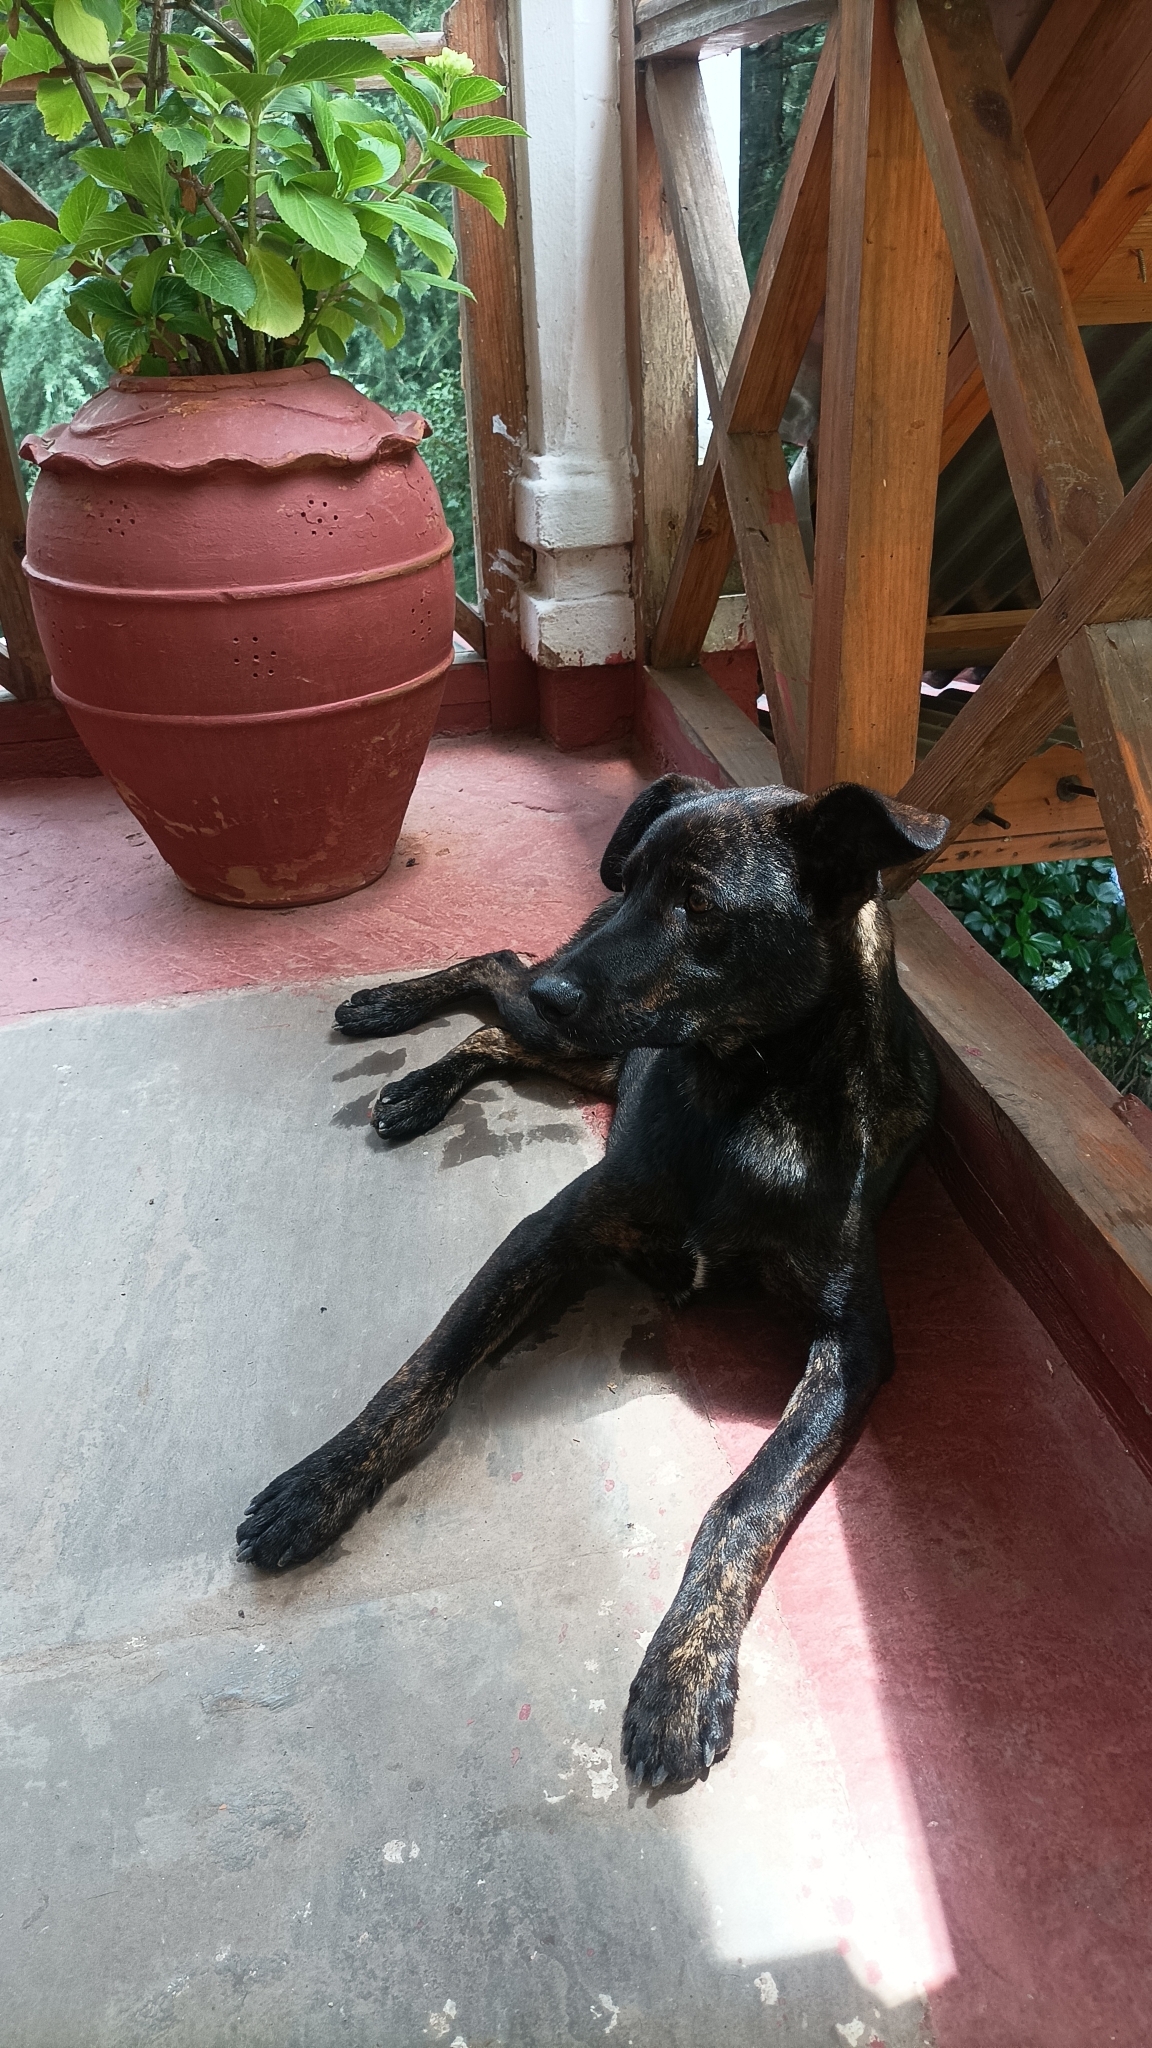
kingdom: Animalia
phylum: Chordata
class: Mammalia
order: Carnivora
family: Canidae
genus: Canis
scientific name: Canis lupus
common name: Gray wolf
